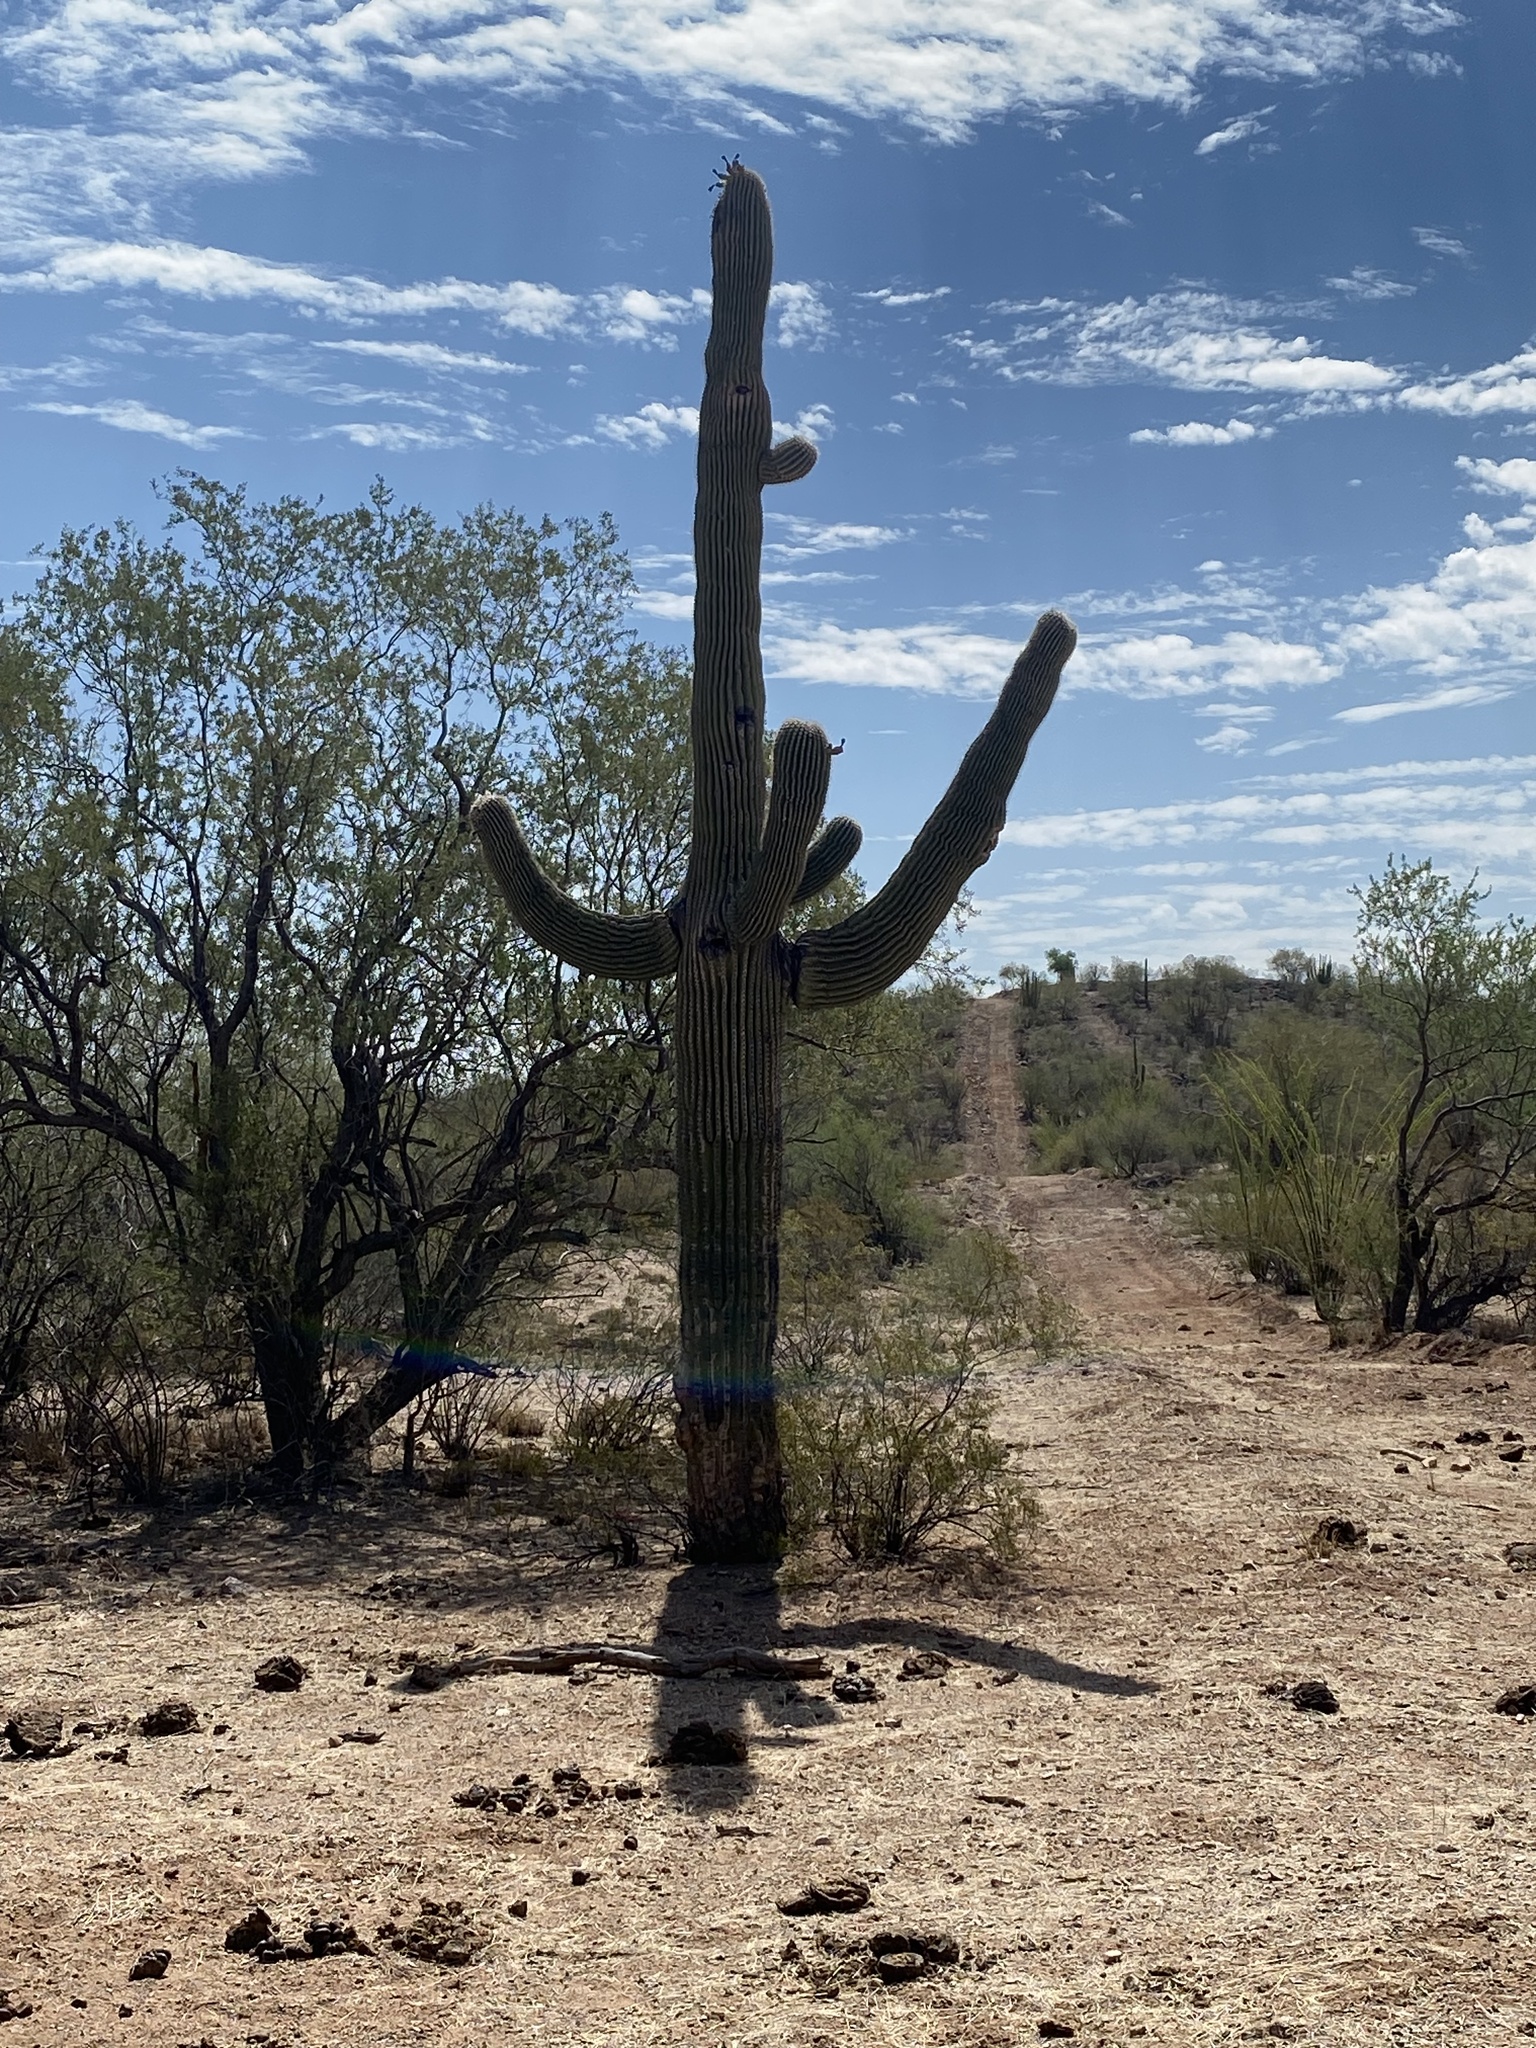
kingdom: Plantae
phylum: Tracheophyta
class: Magnoliopsida
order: Caryophyllales
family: Cactaceae
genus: Carnegiea
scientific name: Carnegiea gigantea
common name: Saguaro
